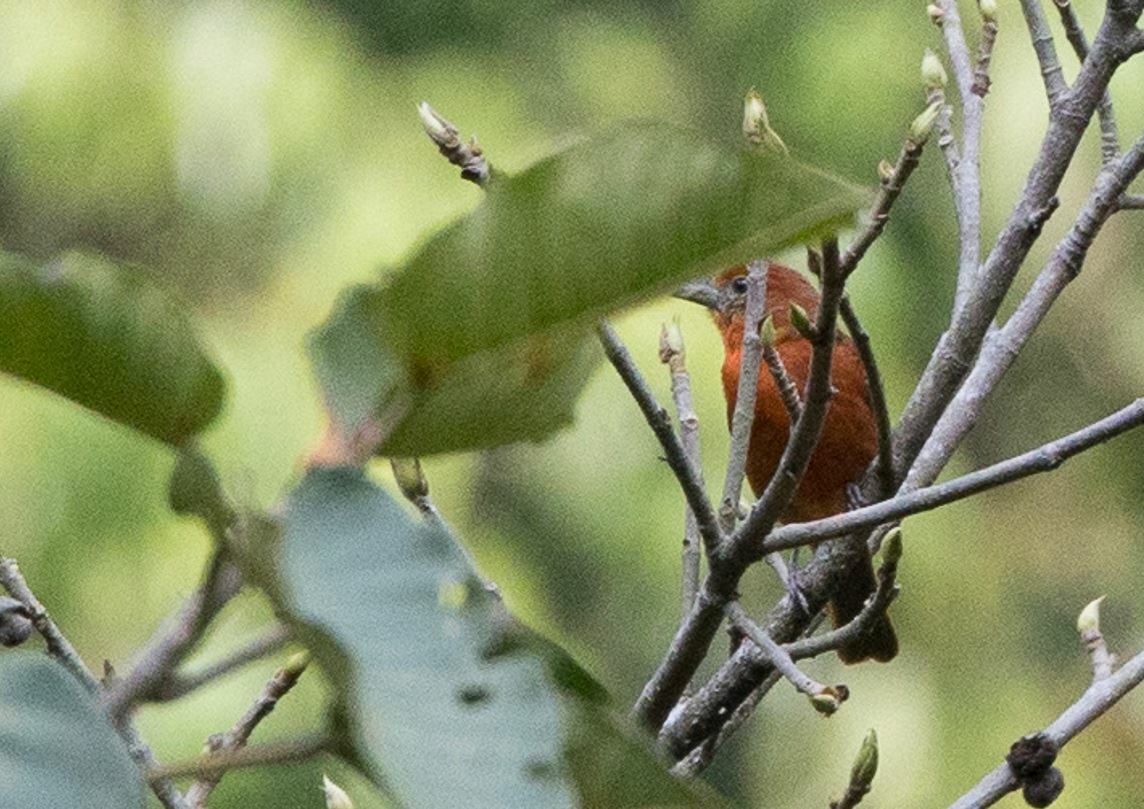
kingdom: Animalia
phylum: Chordata
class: Aves
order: Passeriformes
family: Cardinalidae
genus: Piranga
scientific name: Piranga flava
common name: Red tanager
